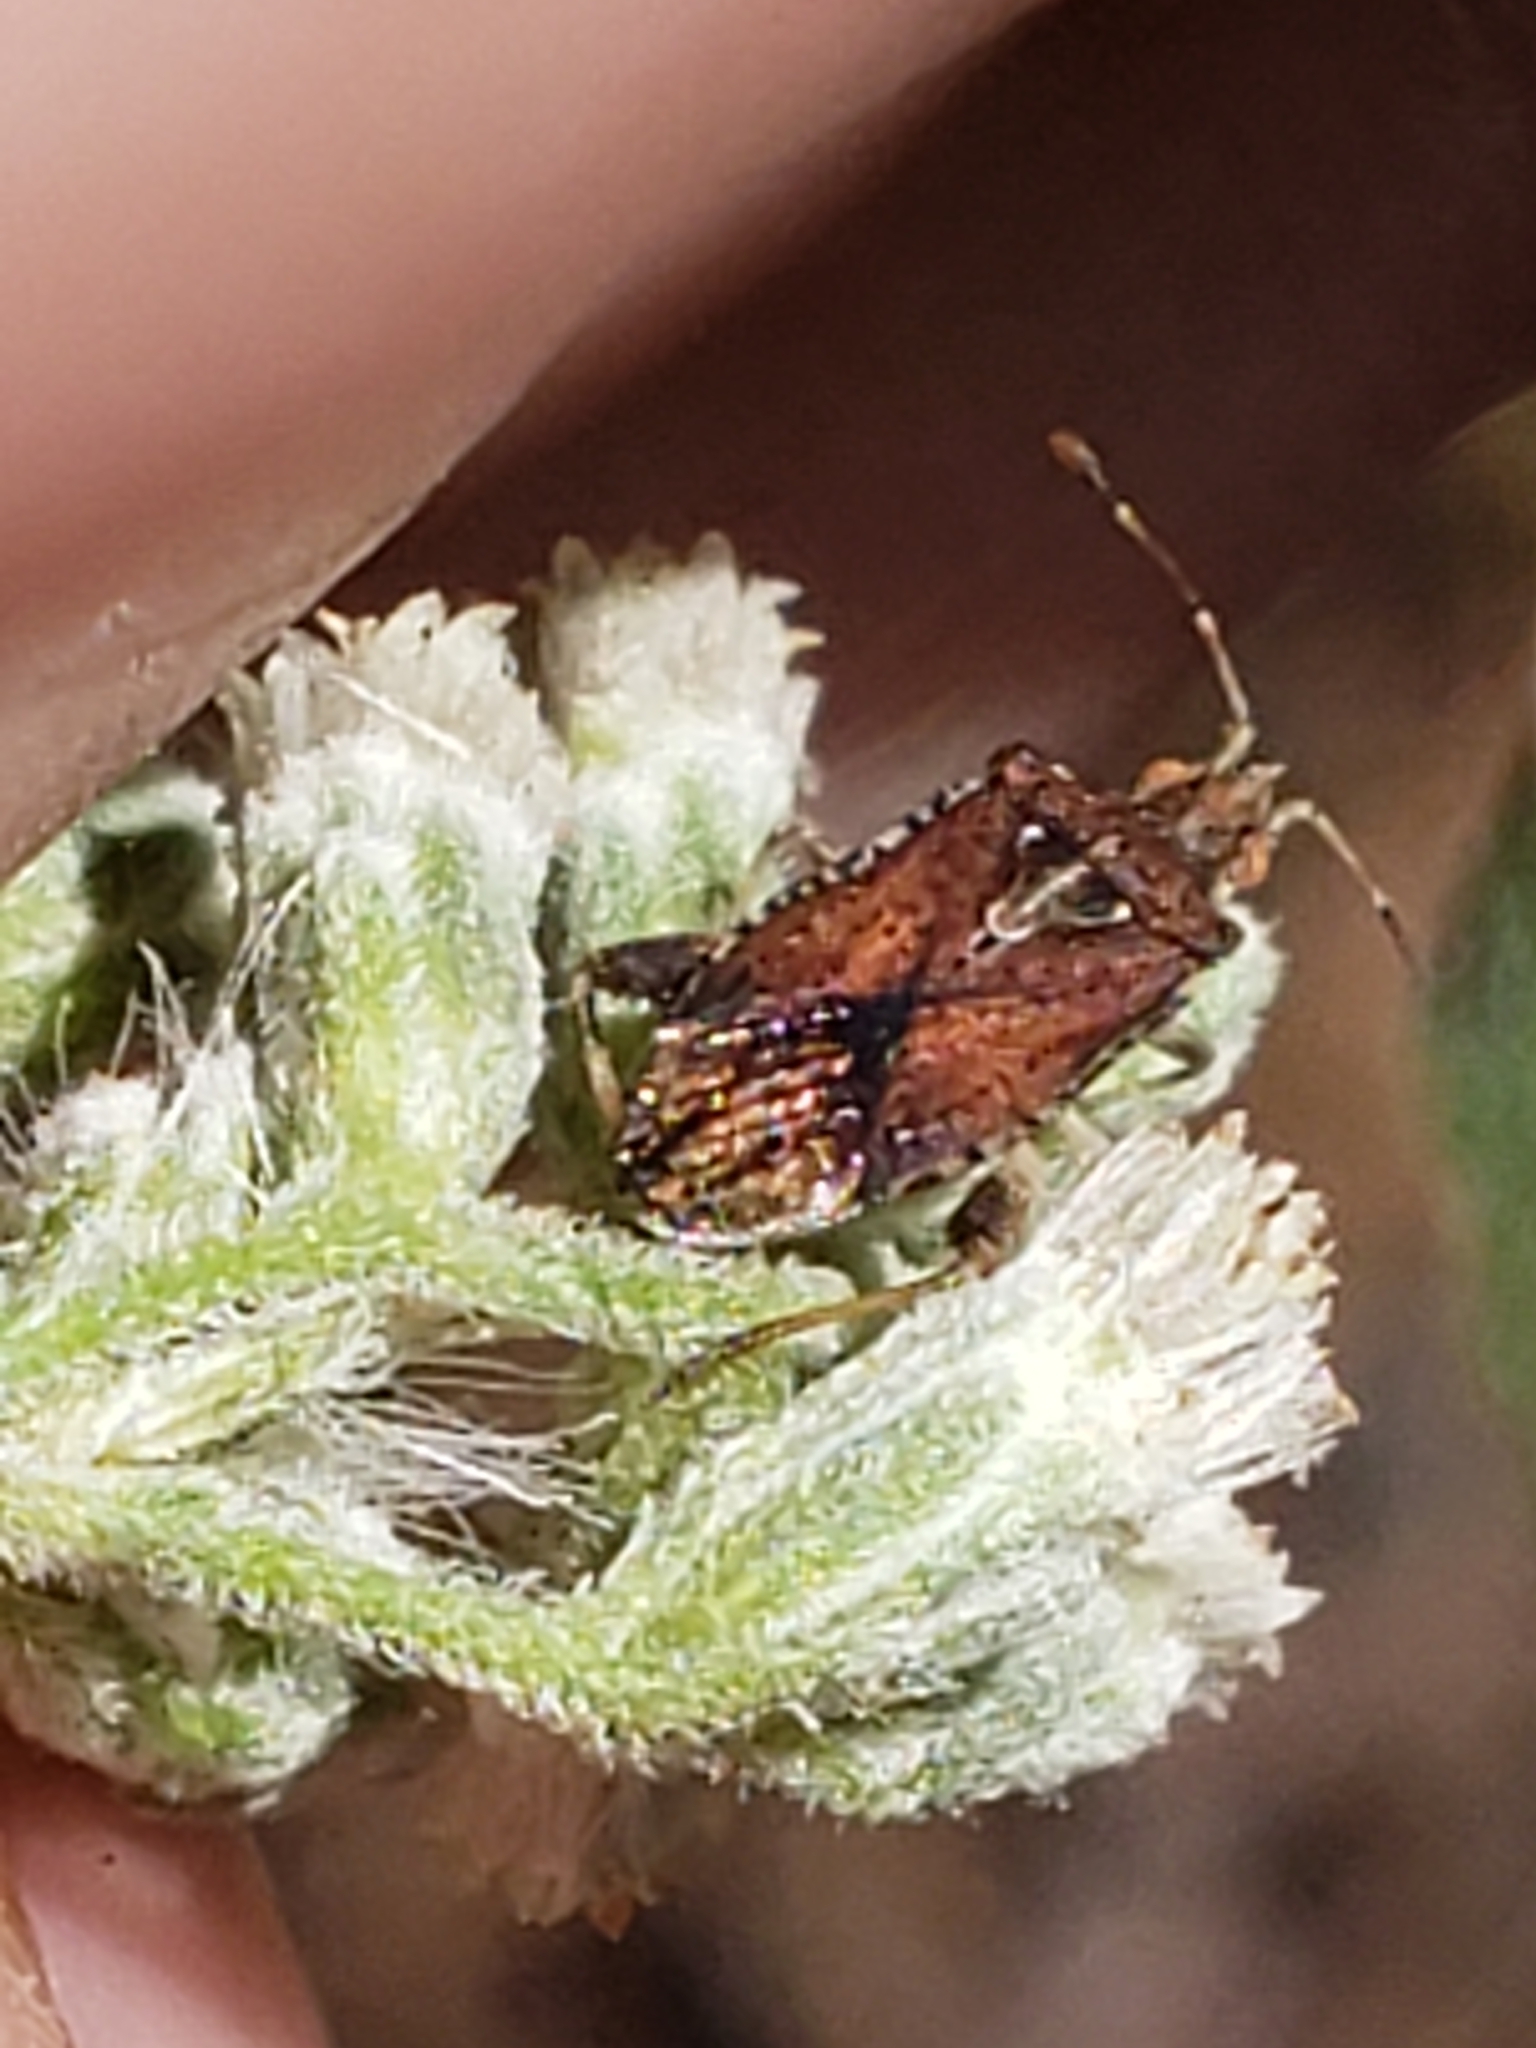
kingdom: Animalia
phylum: Arthropoda
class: Insecta
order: Hemiptera
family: Rhopalidae
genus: Harmostes
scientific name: Harmostes fraterculus
